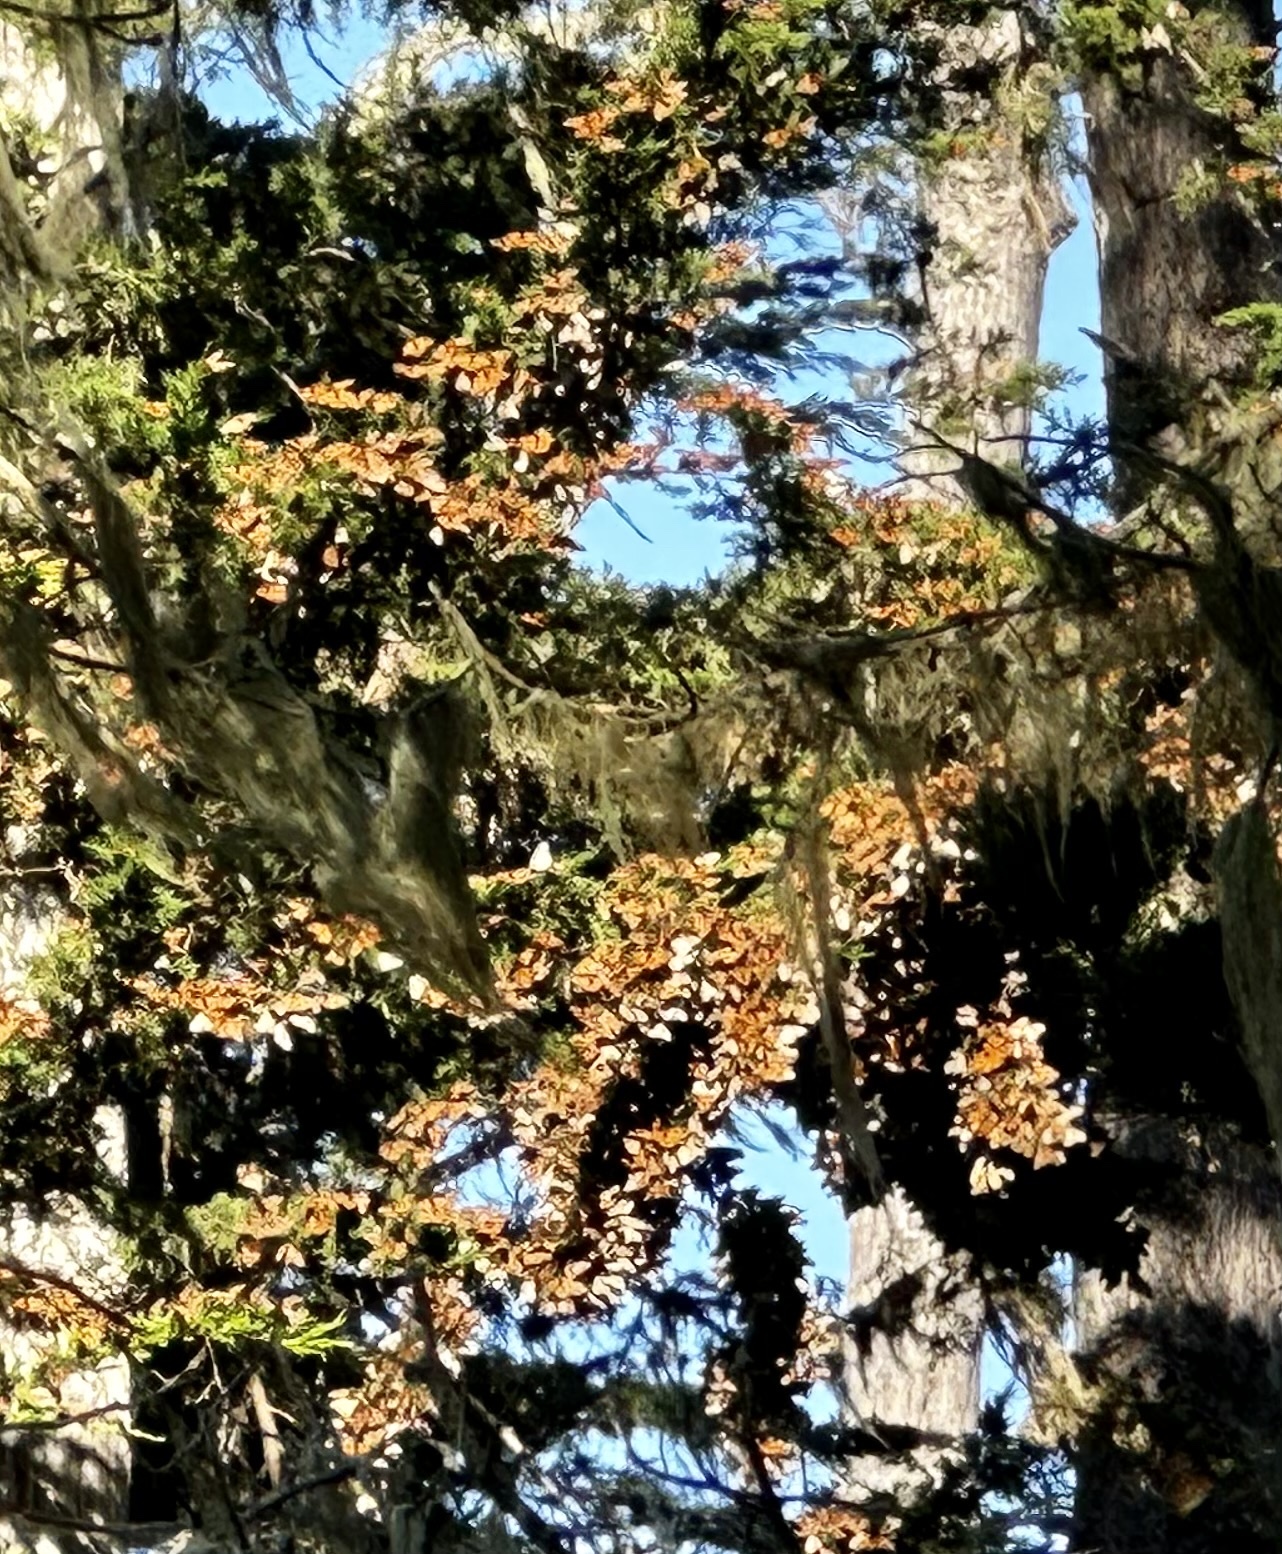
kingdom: Animalia
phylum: Arthropoda
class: Insecta
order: Lepidoptera
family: Nymphalidae
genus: Danaus
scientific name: Danaus plexippus
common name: Monarch
